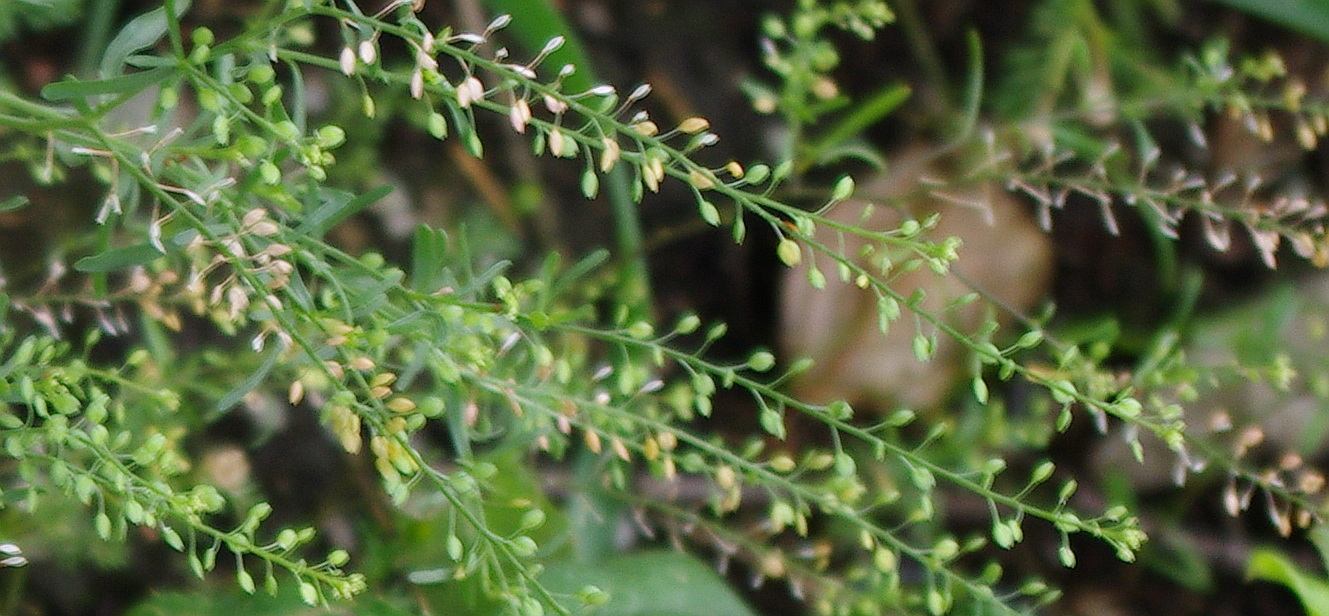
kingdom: Plantae
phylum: Tracheophyta
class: Magnoliopsida
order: Brassicales
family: Brassicaceae
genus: Lepidium
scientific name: Lepidium ruderale
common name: Narrow-leaved pepperwort
